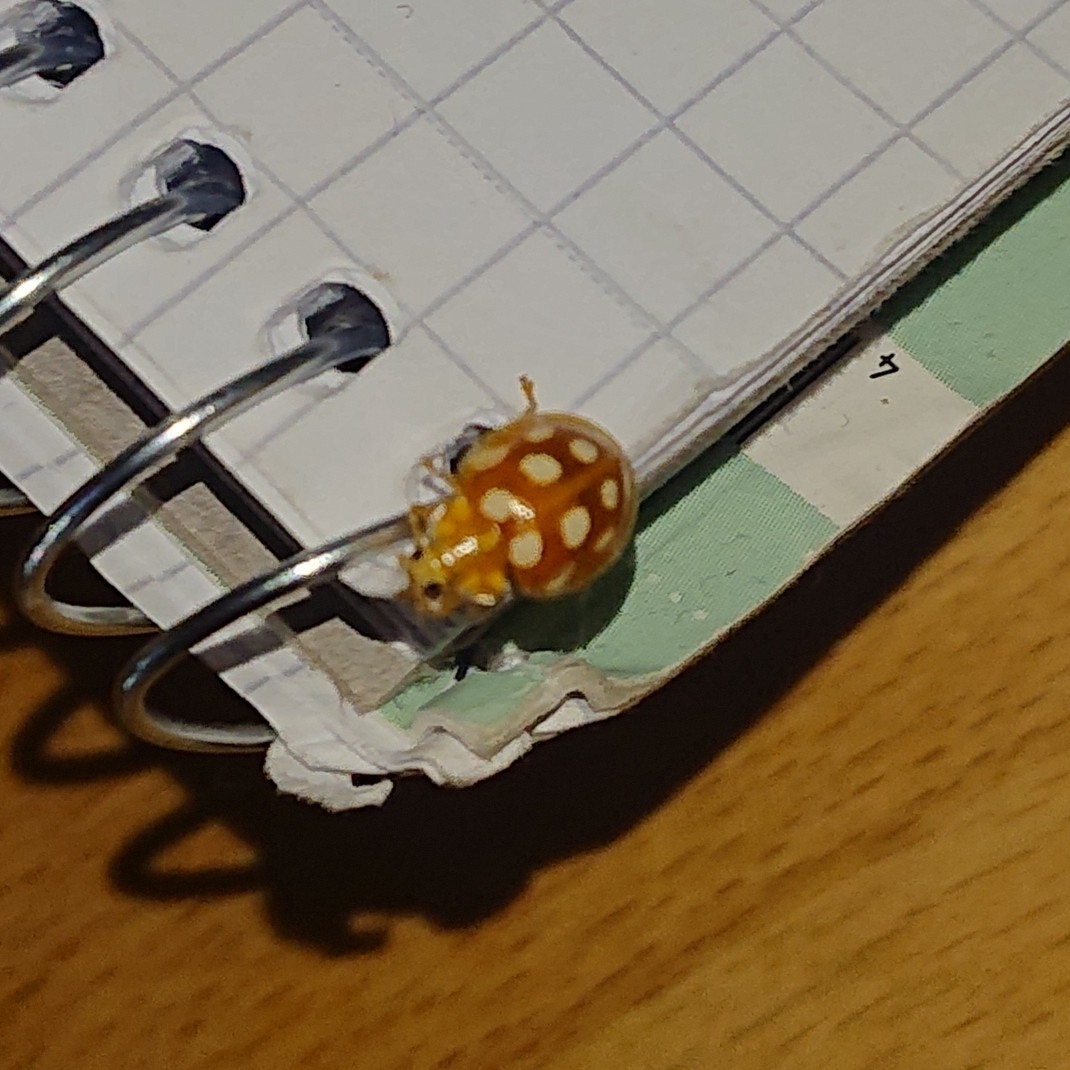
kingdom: Animalia
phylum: Arthropoda
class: Insecta
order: Coleoptera
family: Coccinellidae
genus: Halyzia
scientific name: Halyzia sedecimguttata
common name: Orange ladybird
